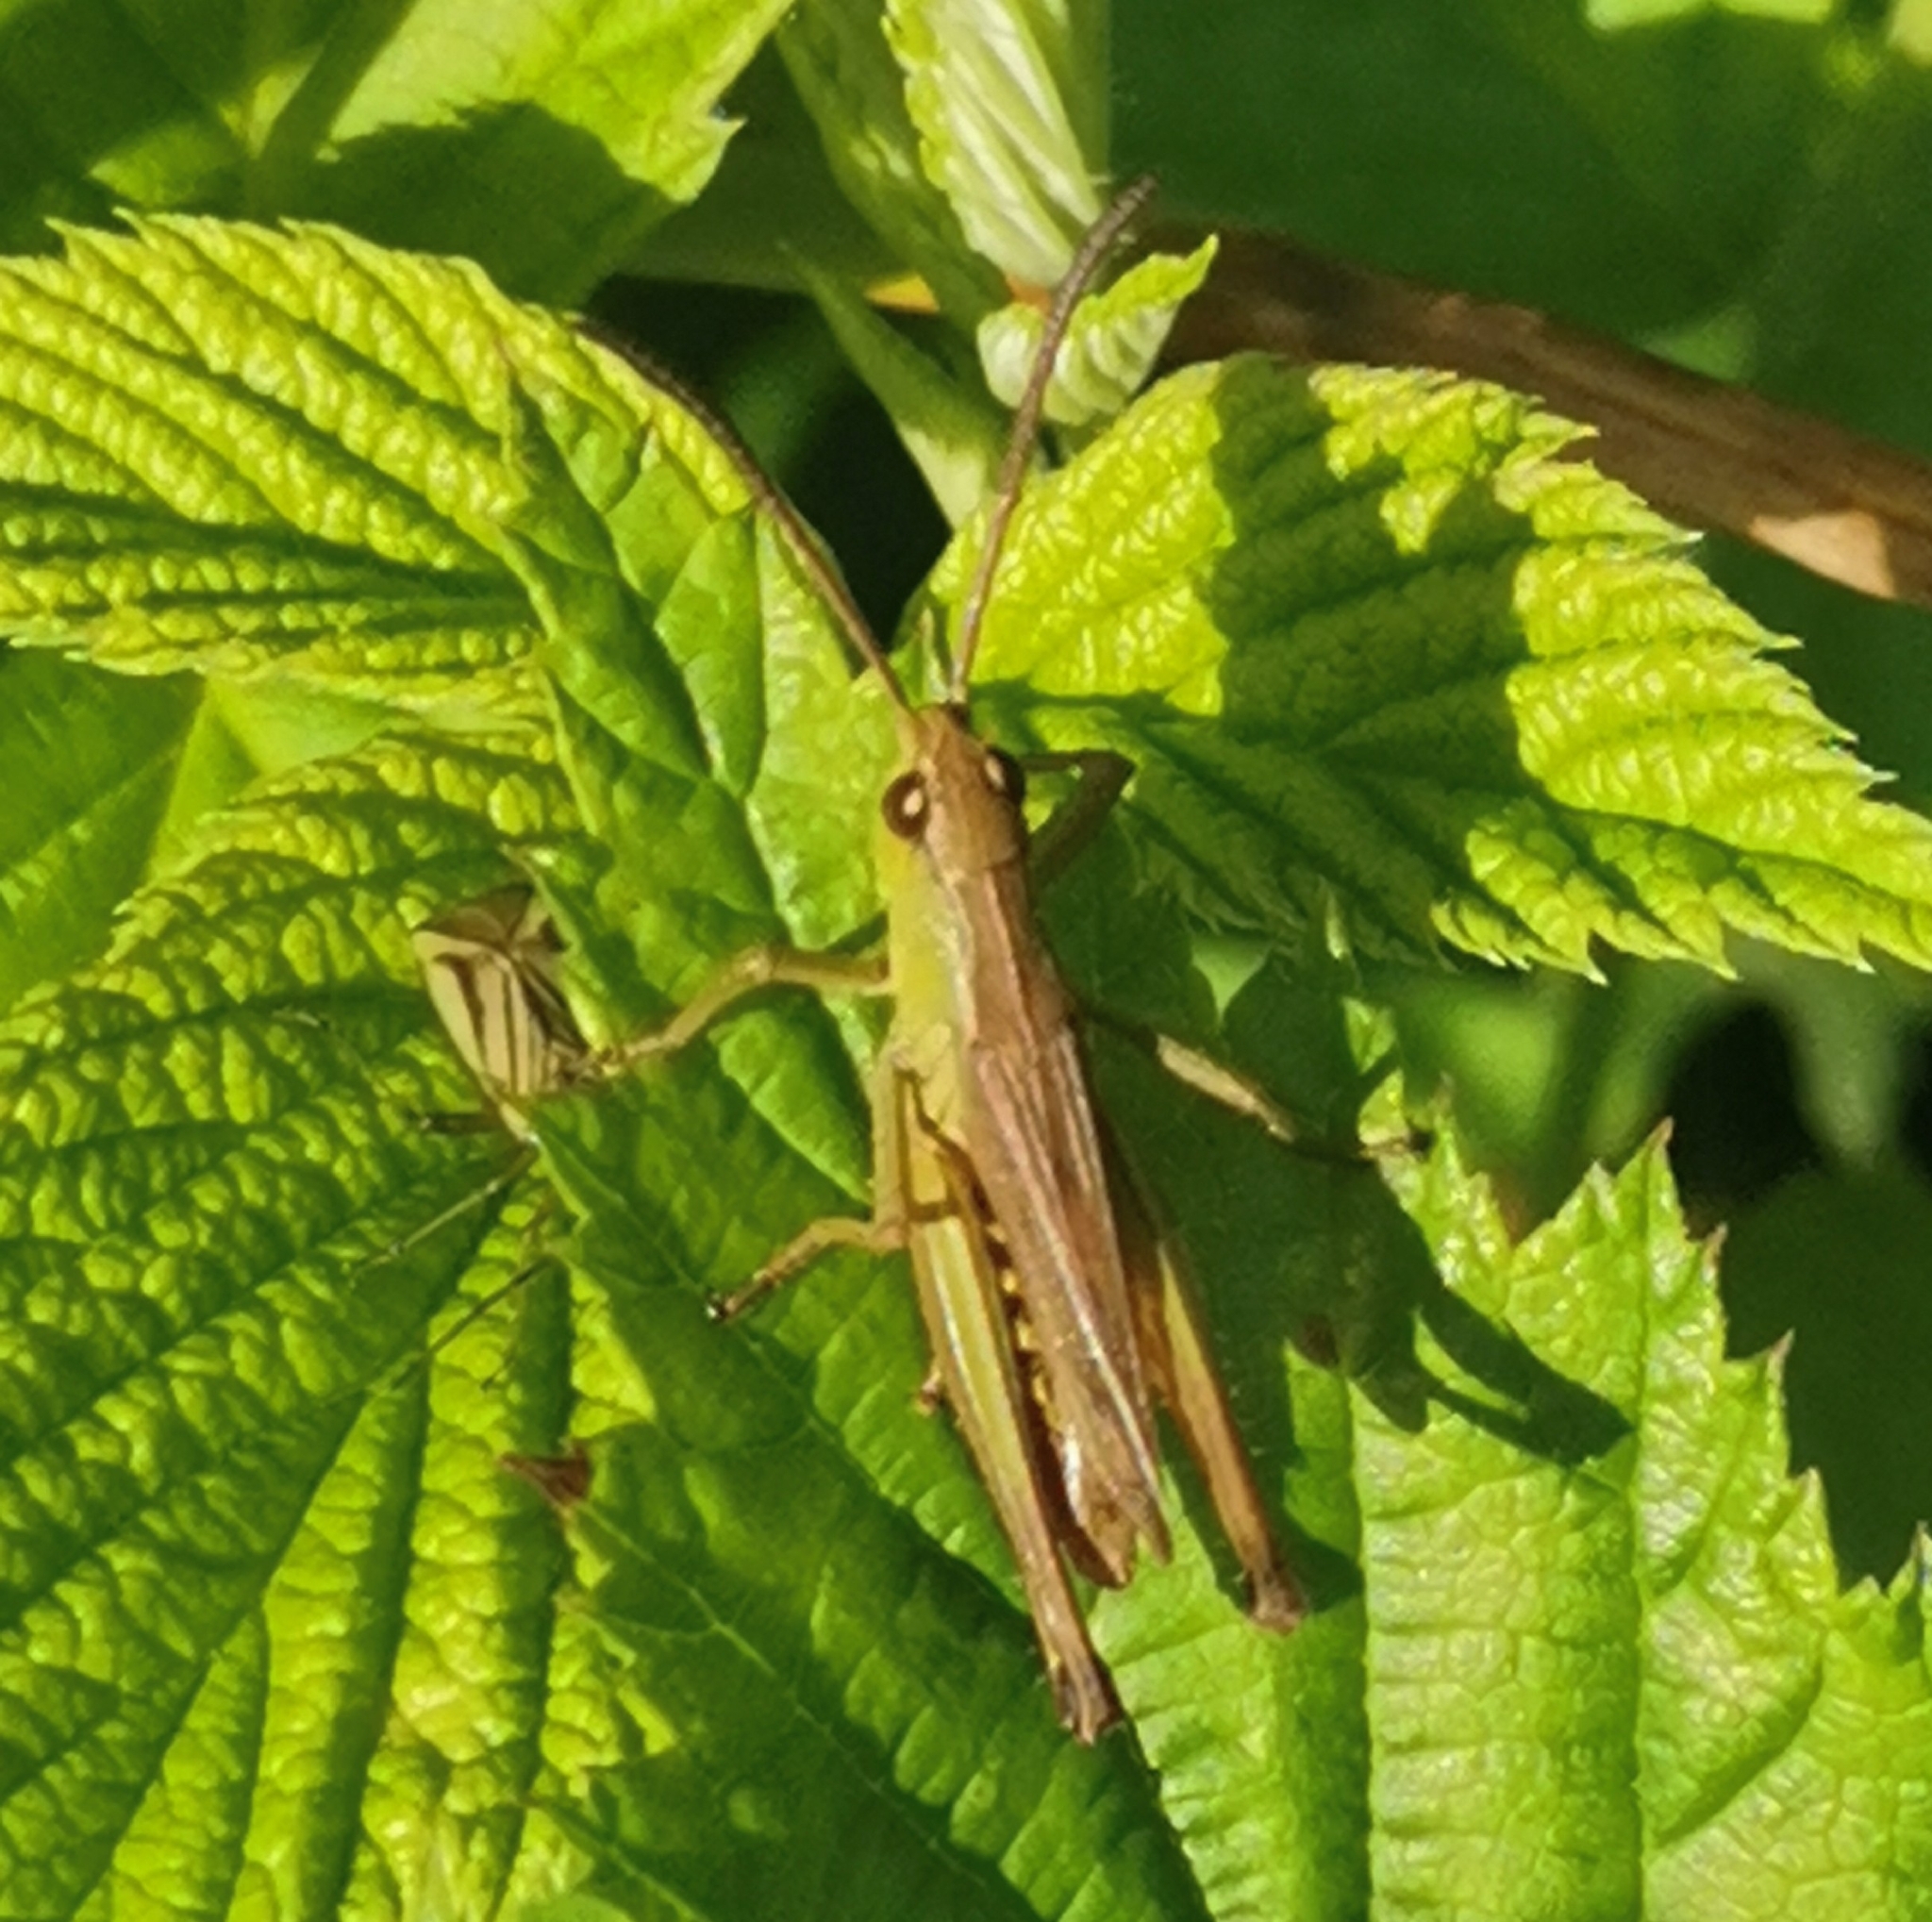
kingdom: Animalia
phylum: Arthropoda
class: Insecta
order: Orthoptera
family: Acrididae
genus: Pseudochorthippus
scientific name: Pseudochorthippus parallelus
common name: Meadow grasshopper
